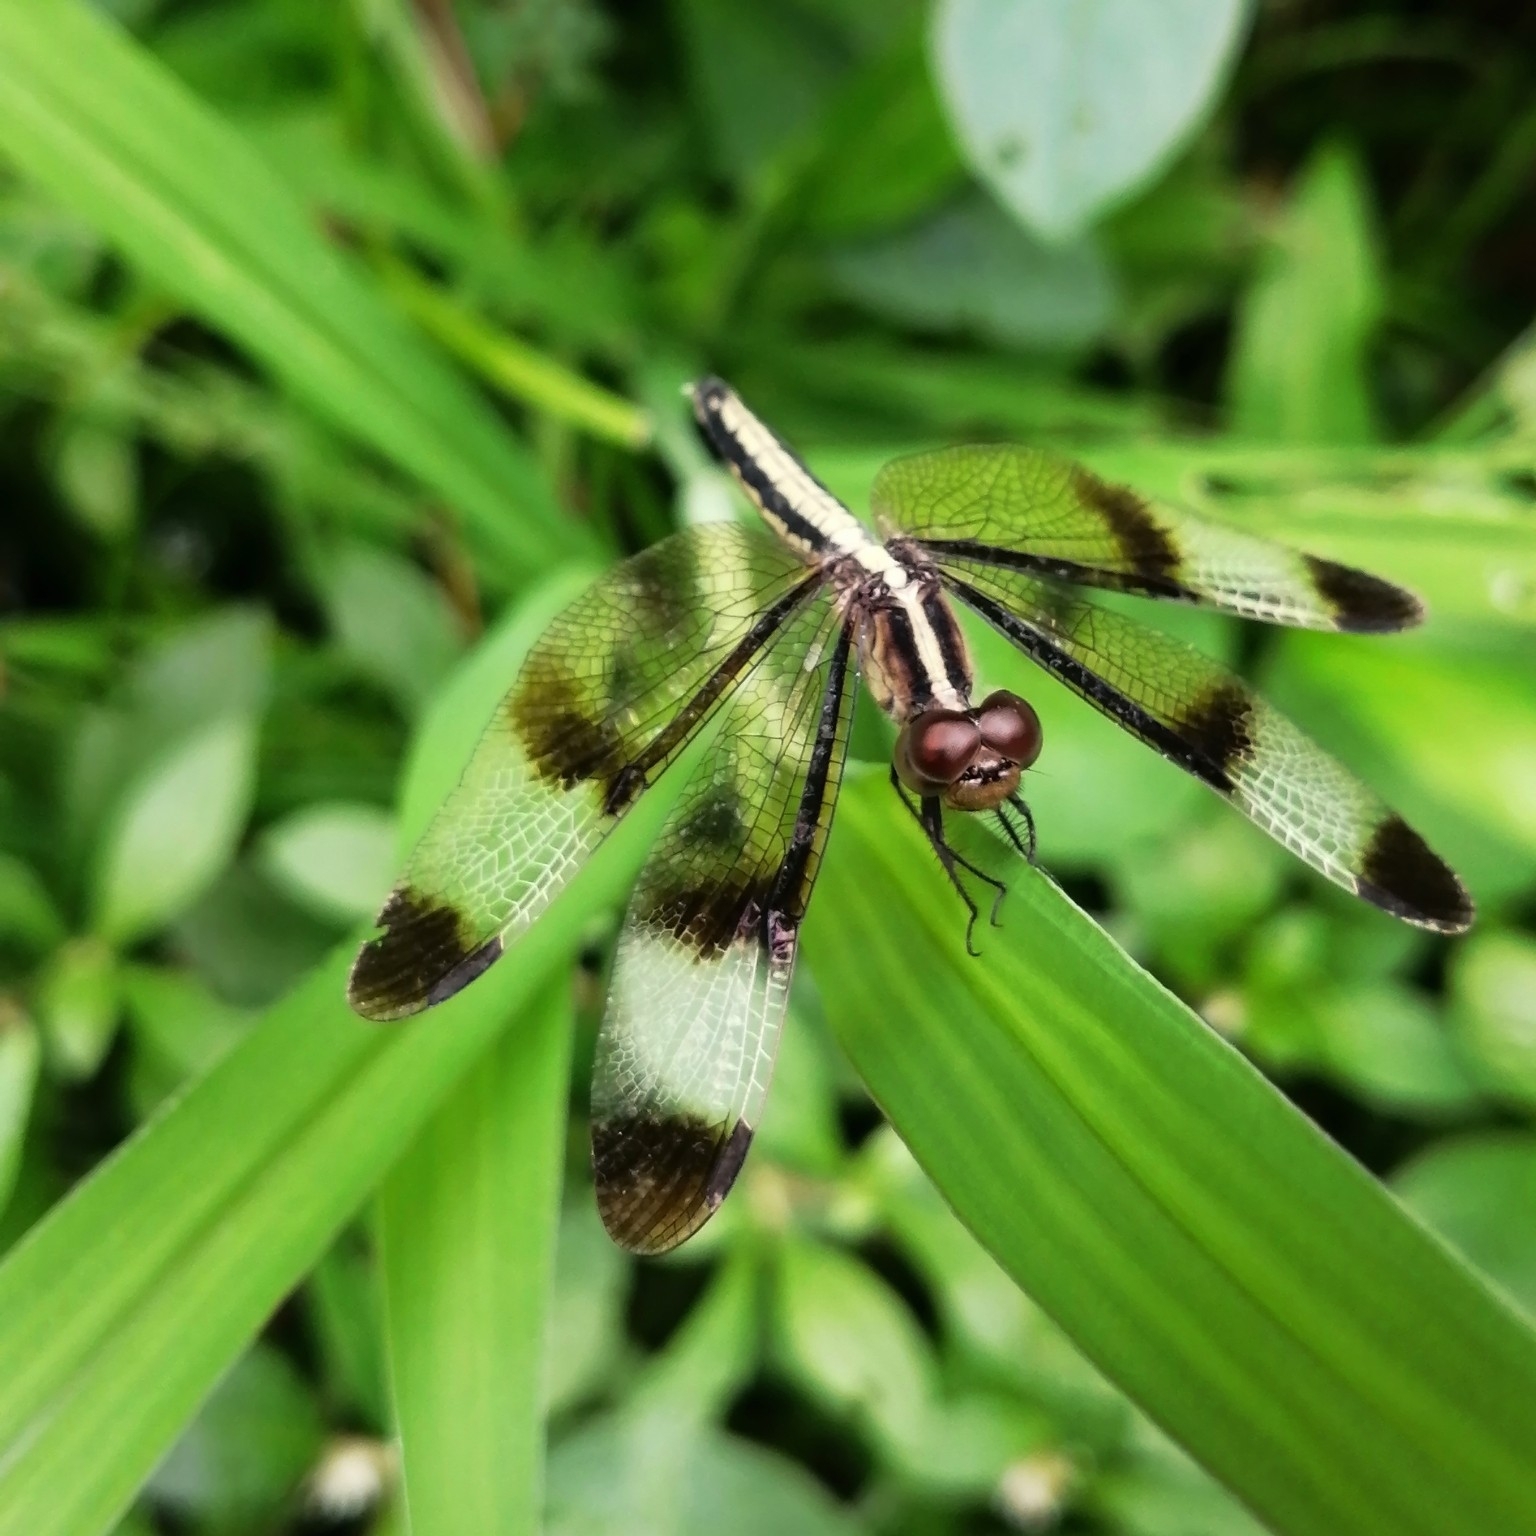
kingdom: Animalia
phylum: Arthropoda
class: Insecta
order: Odonata
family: Libellulidae
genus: Neurothemis
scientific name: Neurothemis tullia
